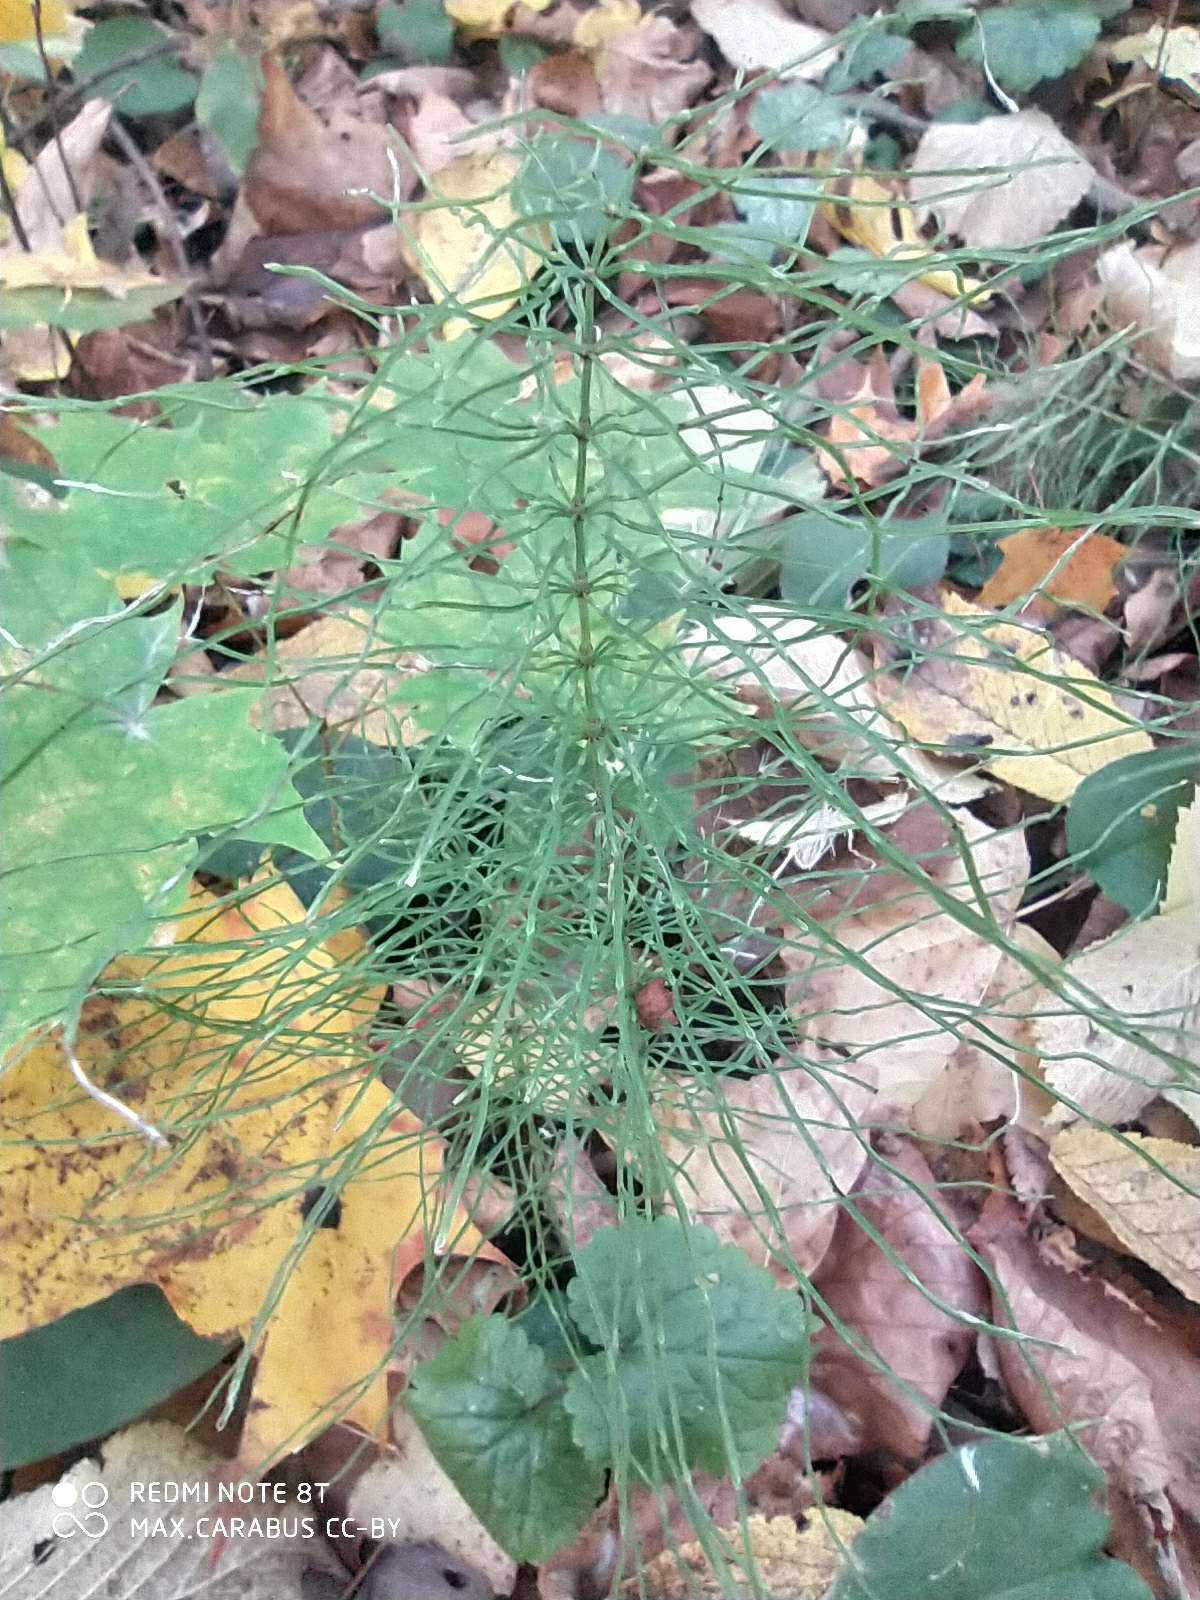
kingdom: Plantae
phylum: Tracheophyta
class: Polypodiopsida
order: Equisetales
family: Equisetaceae
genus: Equisetum
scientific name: Equisetum pratense
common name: Meadow horsetail
